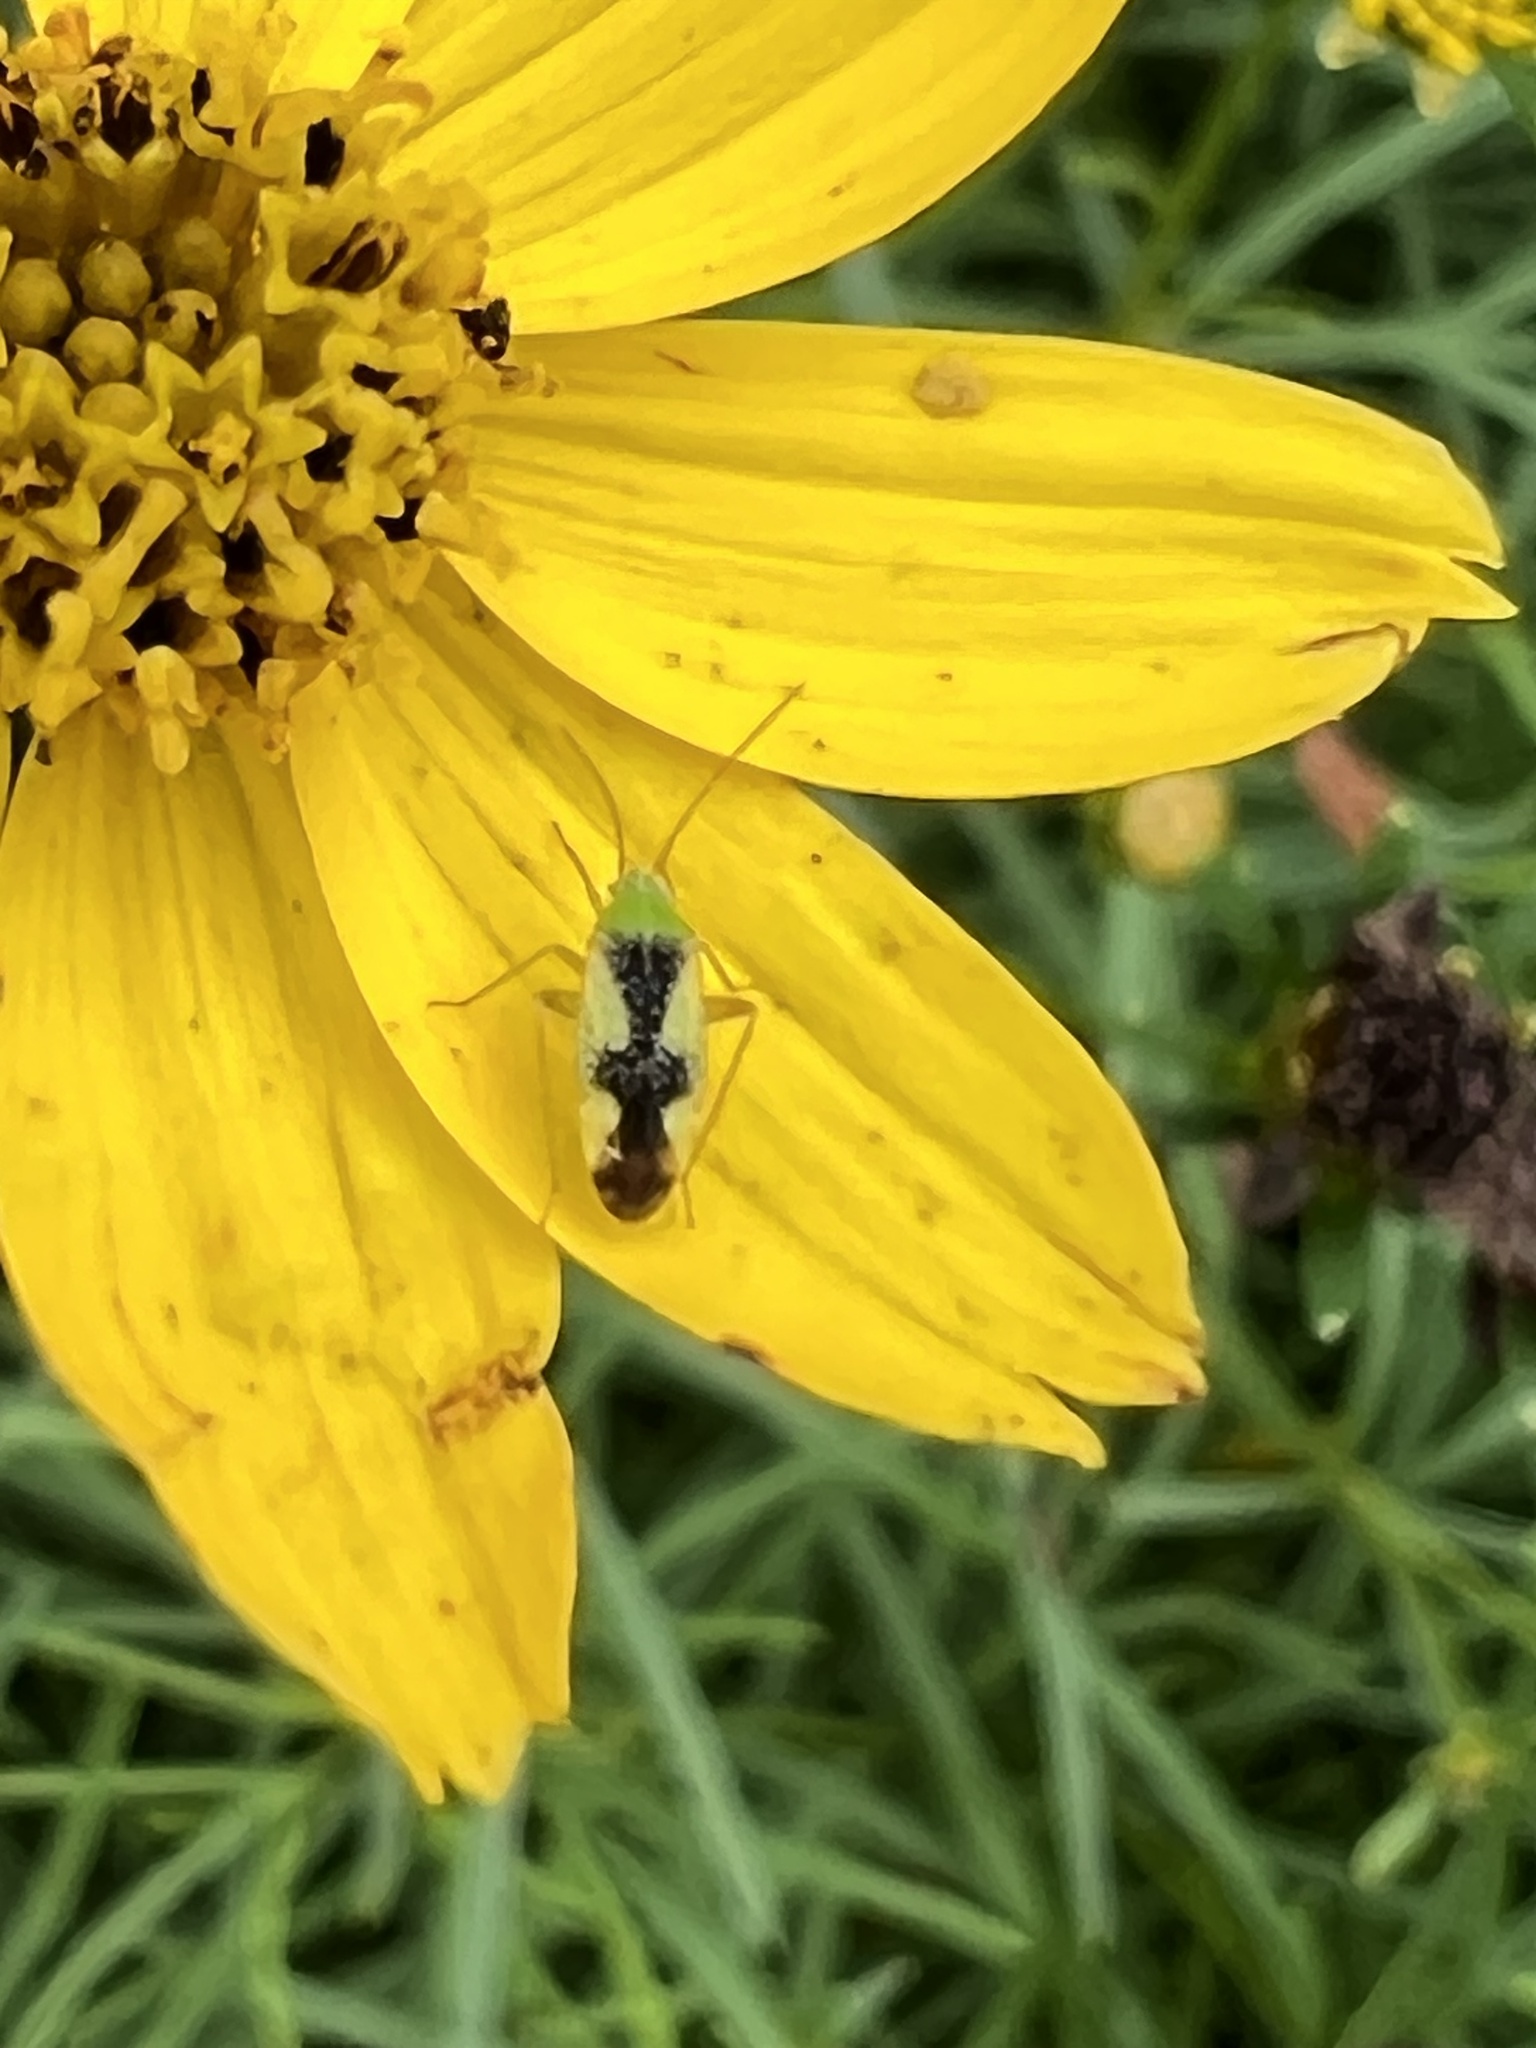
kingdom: Animalia
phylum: Arthropoda
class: Insecta
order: Hemiptera
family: Miridae
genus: Reuteroscopus
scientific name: Reuteroscopus ornatus
